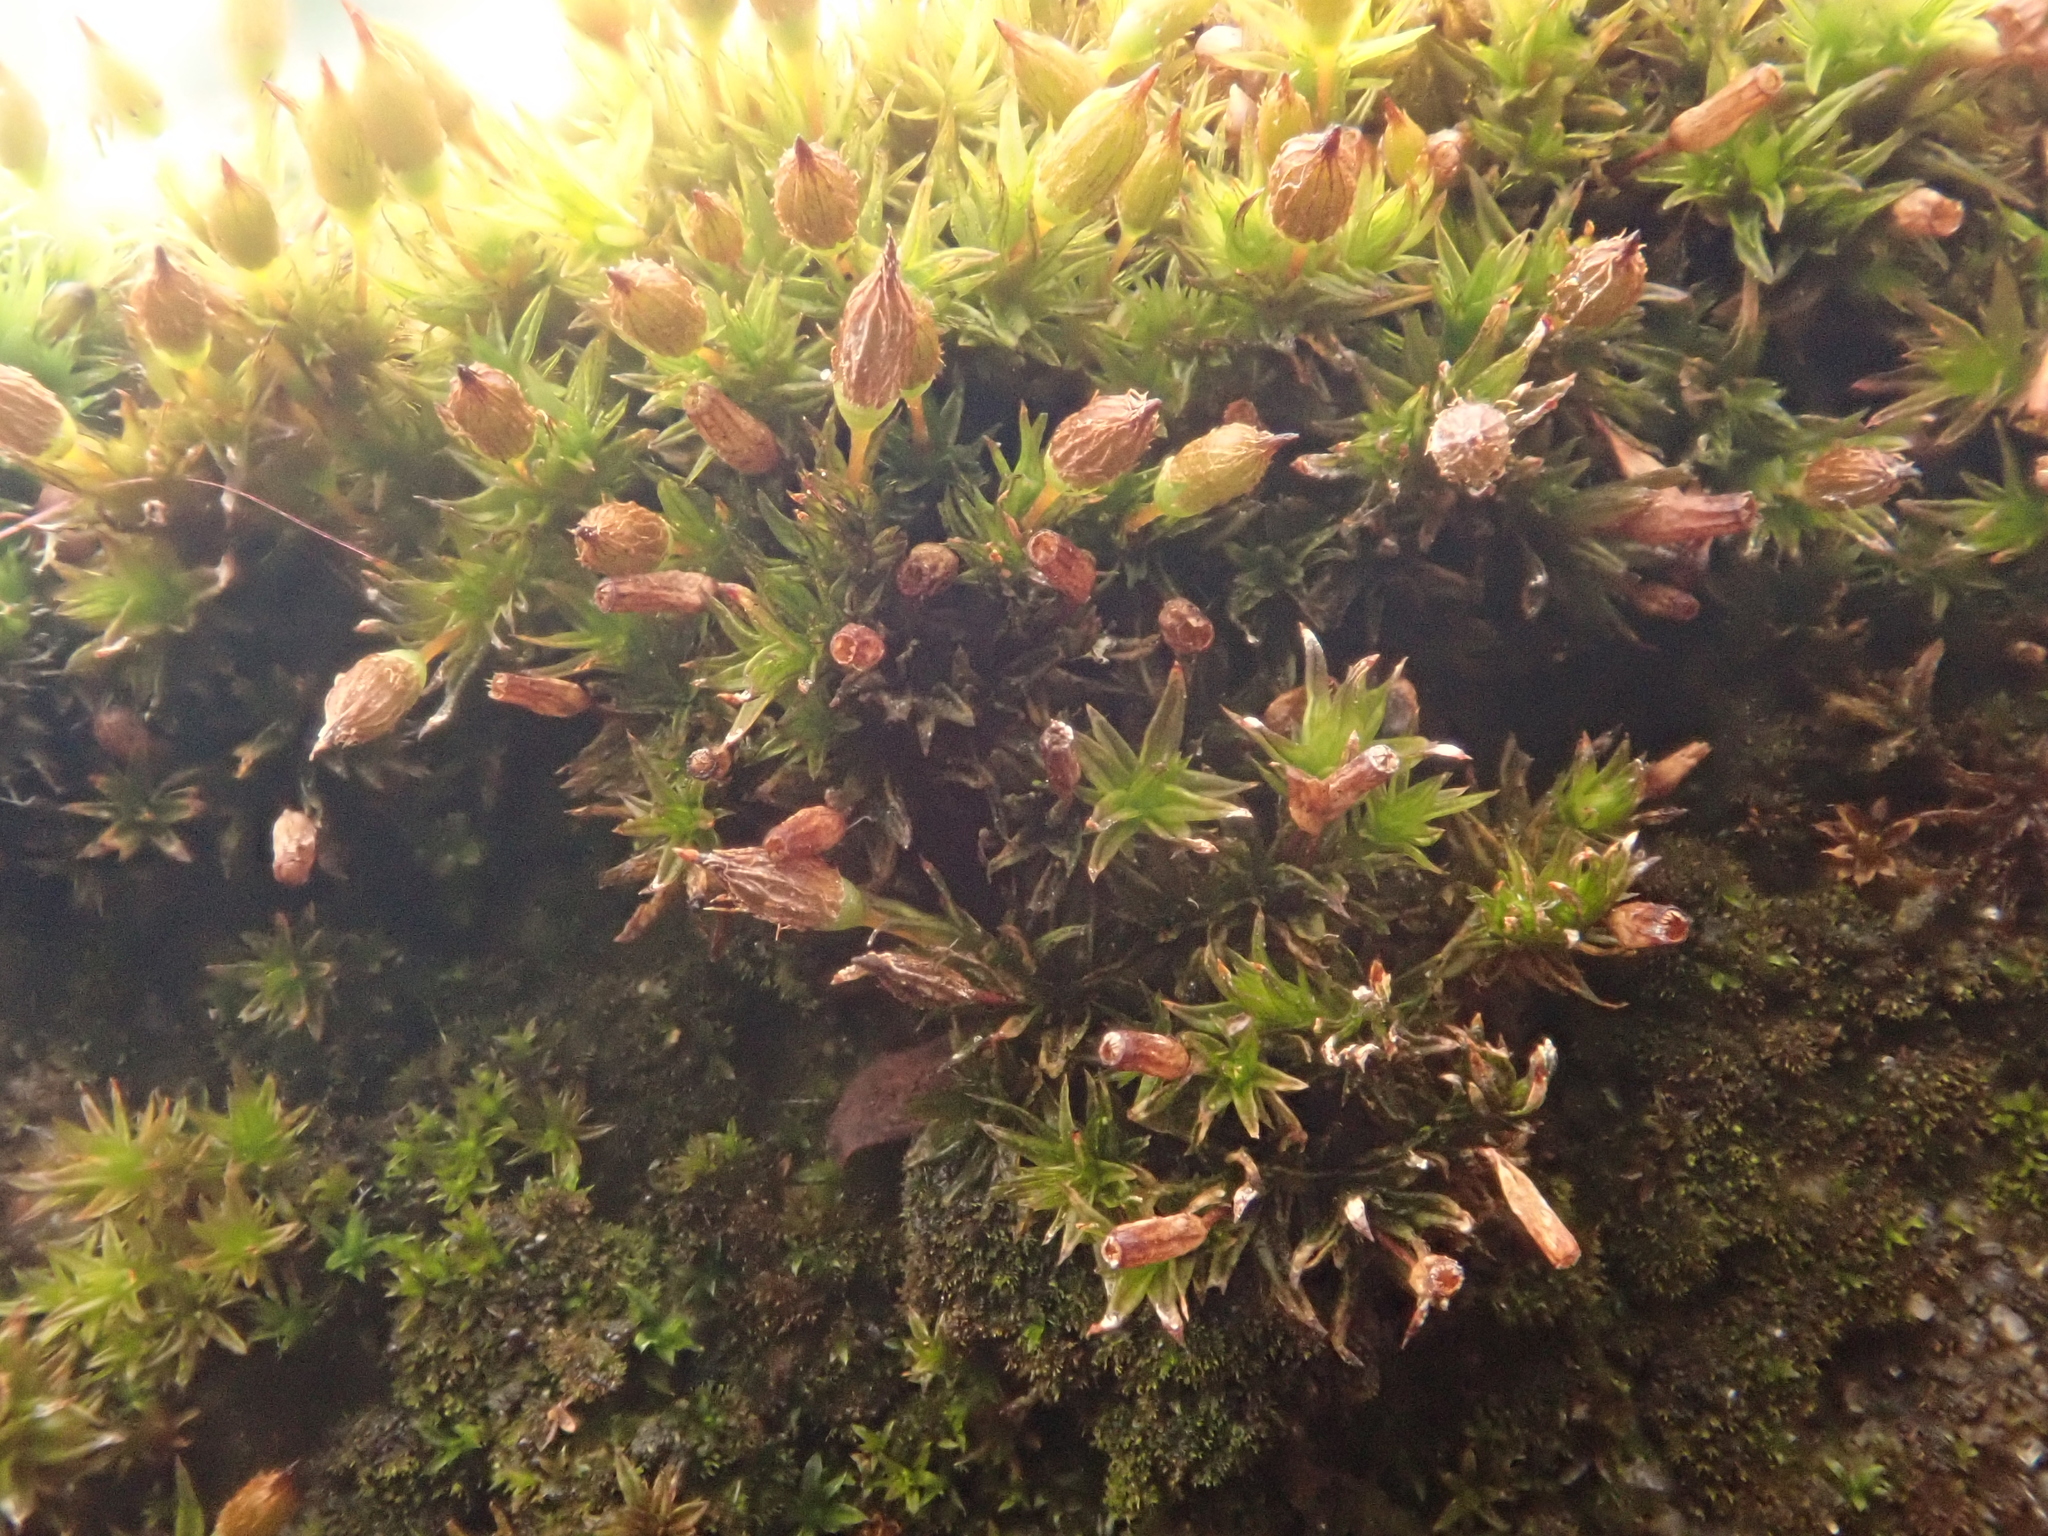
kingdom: Plantae
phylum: Bryophyta
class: Bryopsida
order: Orthotrichales
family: Orthotrichaceae
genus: Orthotrichum
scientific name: Orthotrichum anomalum
